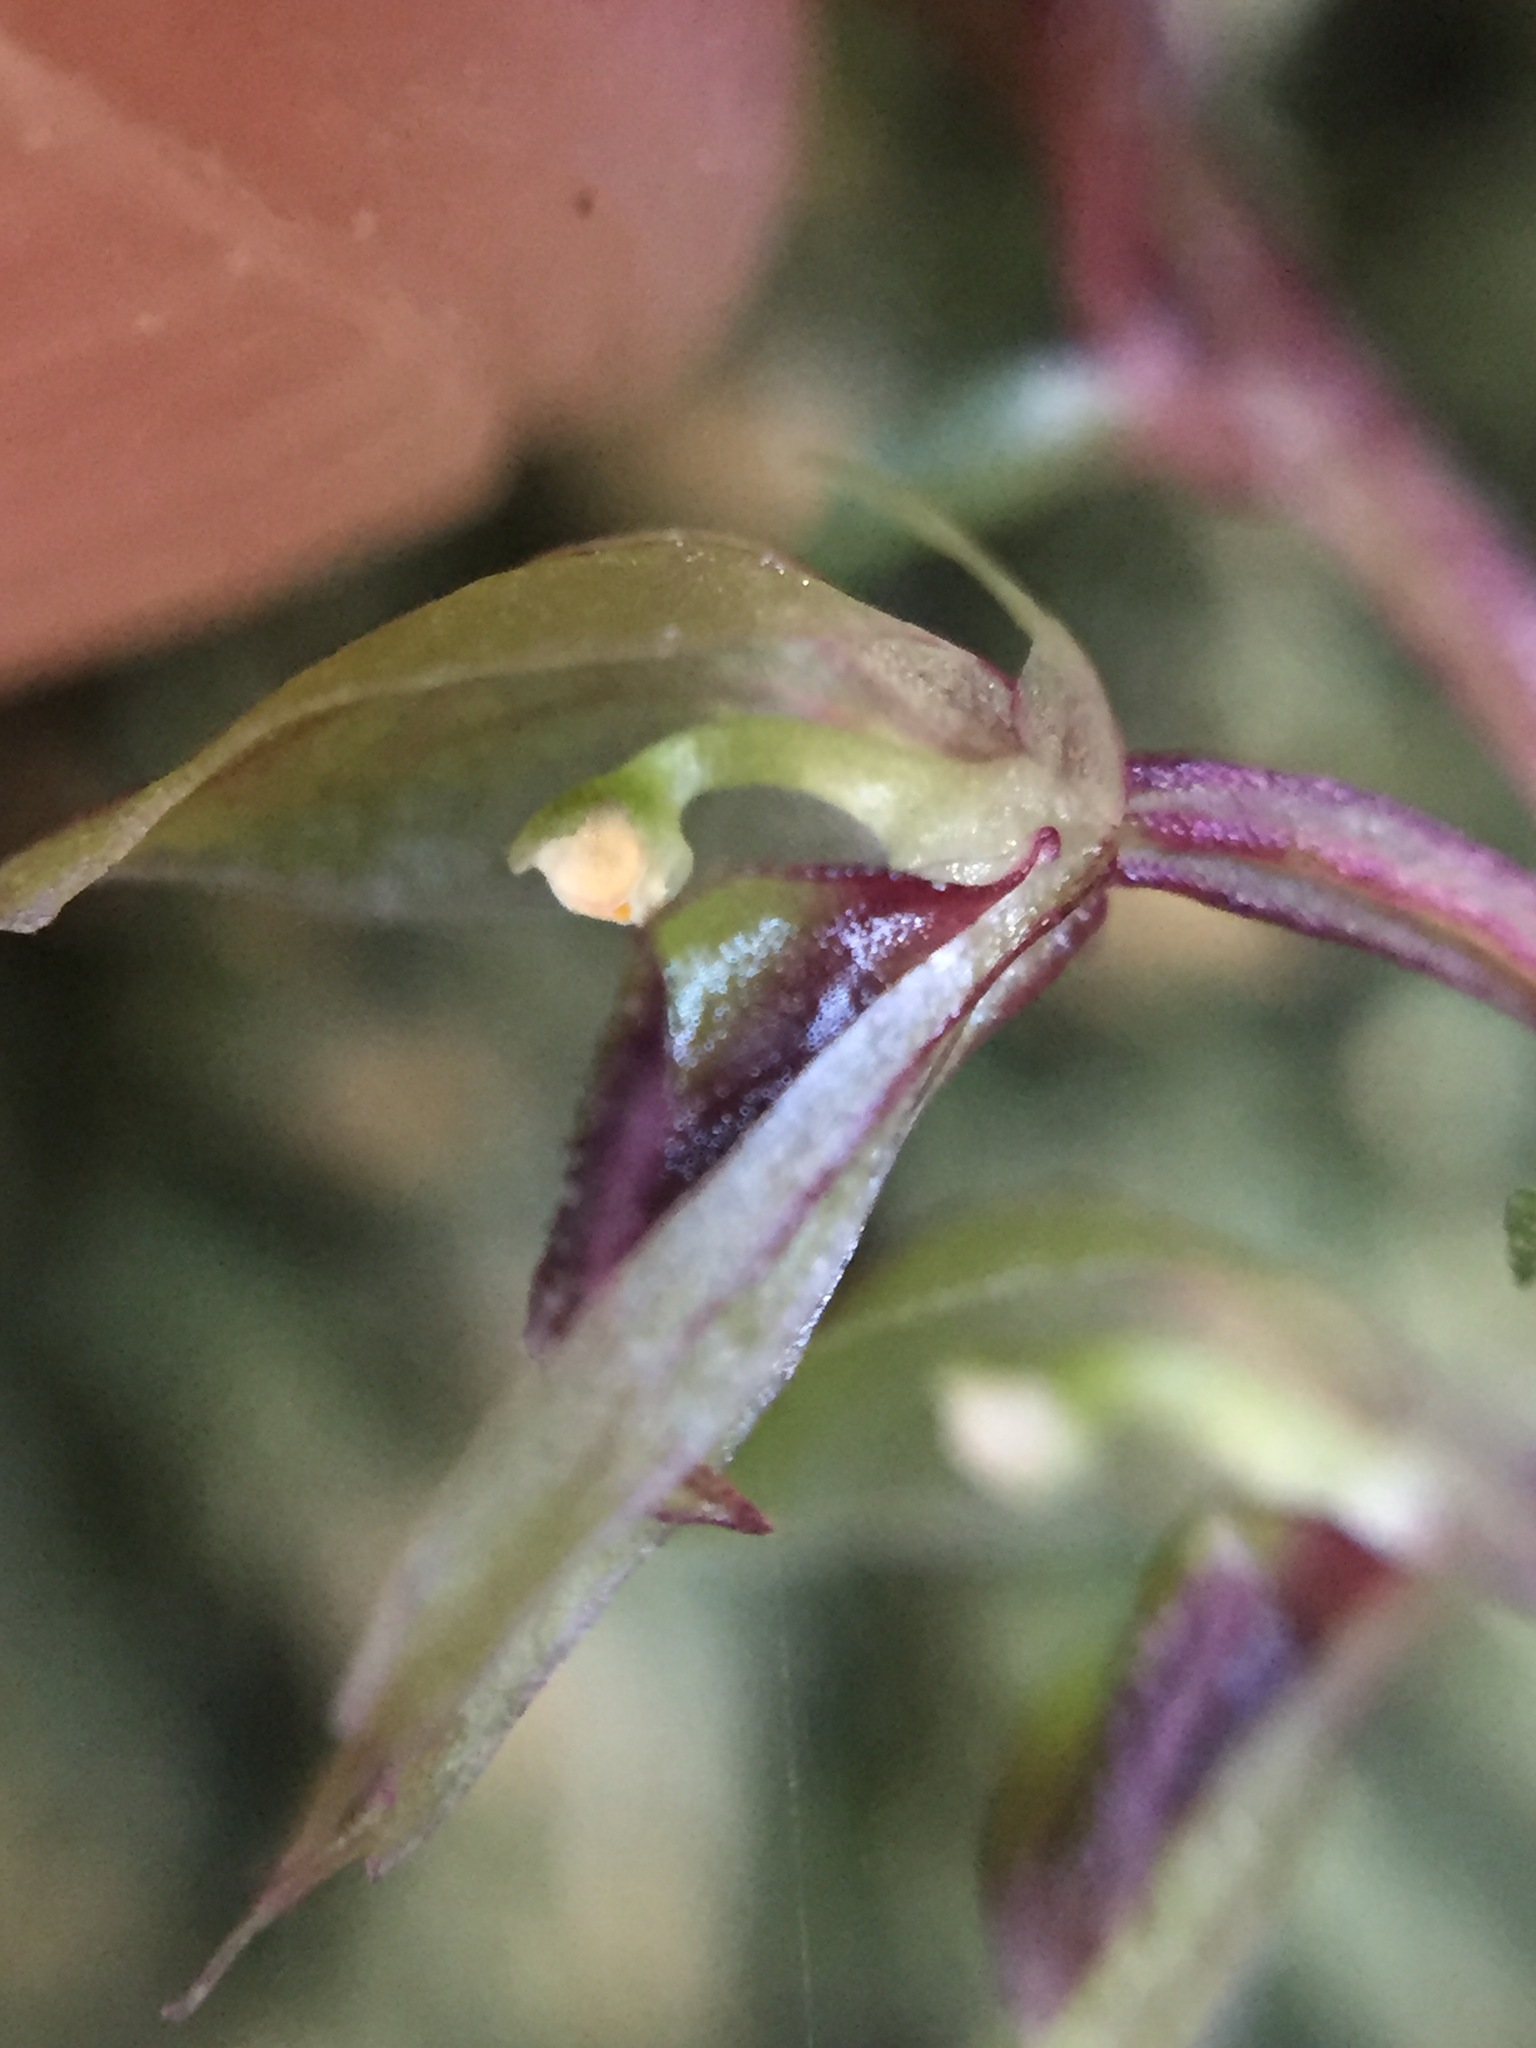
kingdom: Plantae
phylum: Tracheophyta
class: Liliopsida
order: Asparagales
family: Orchidaceae
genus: Acianthus
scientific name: Acianthus sinclairii
